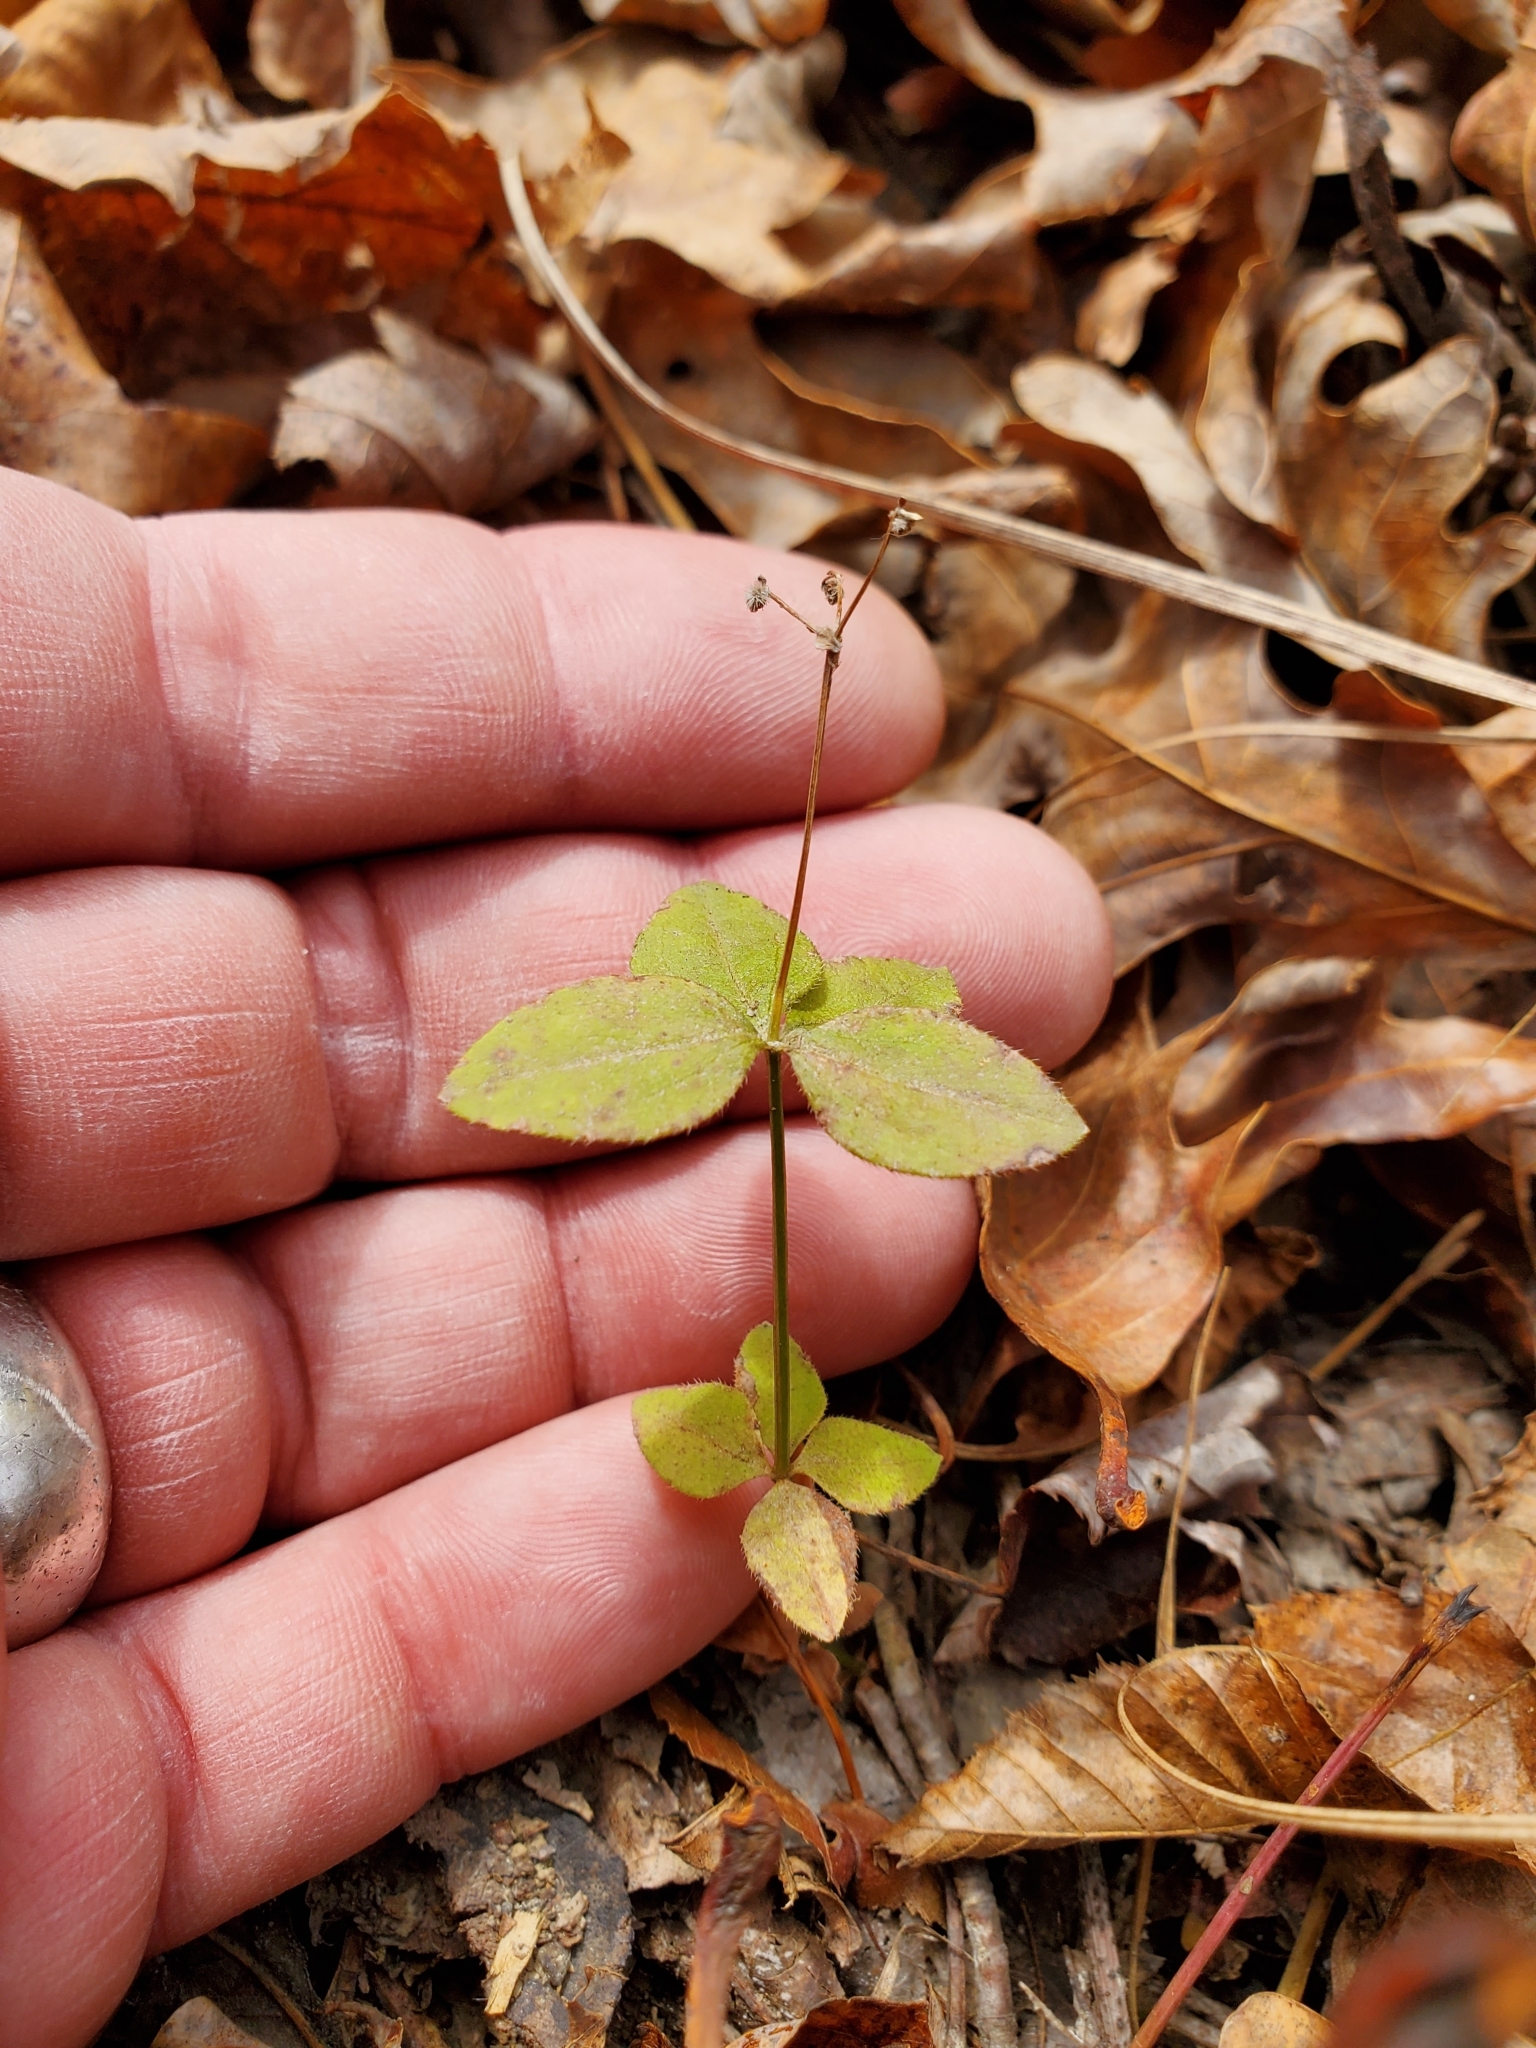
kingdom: Plantae
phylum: Tracheophyta
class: Magnoliopsida
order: Gentianales
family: Rubiaceae
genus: Galium
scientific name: Galium circaezans
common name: Forest bedstraw
